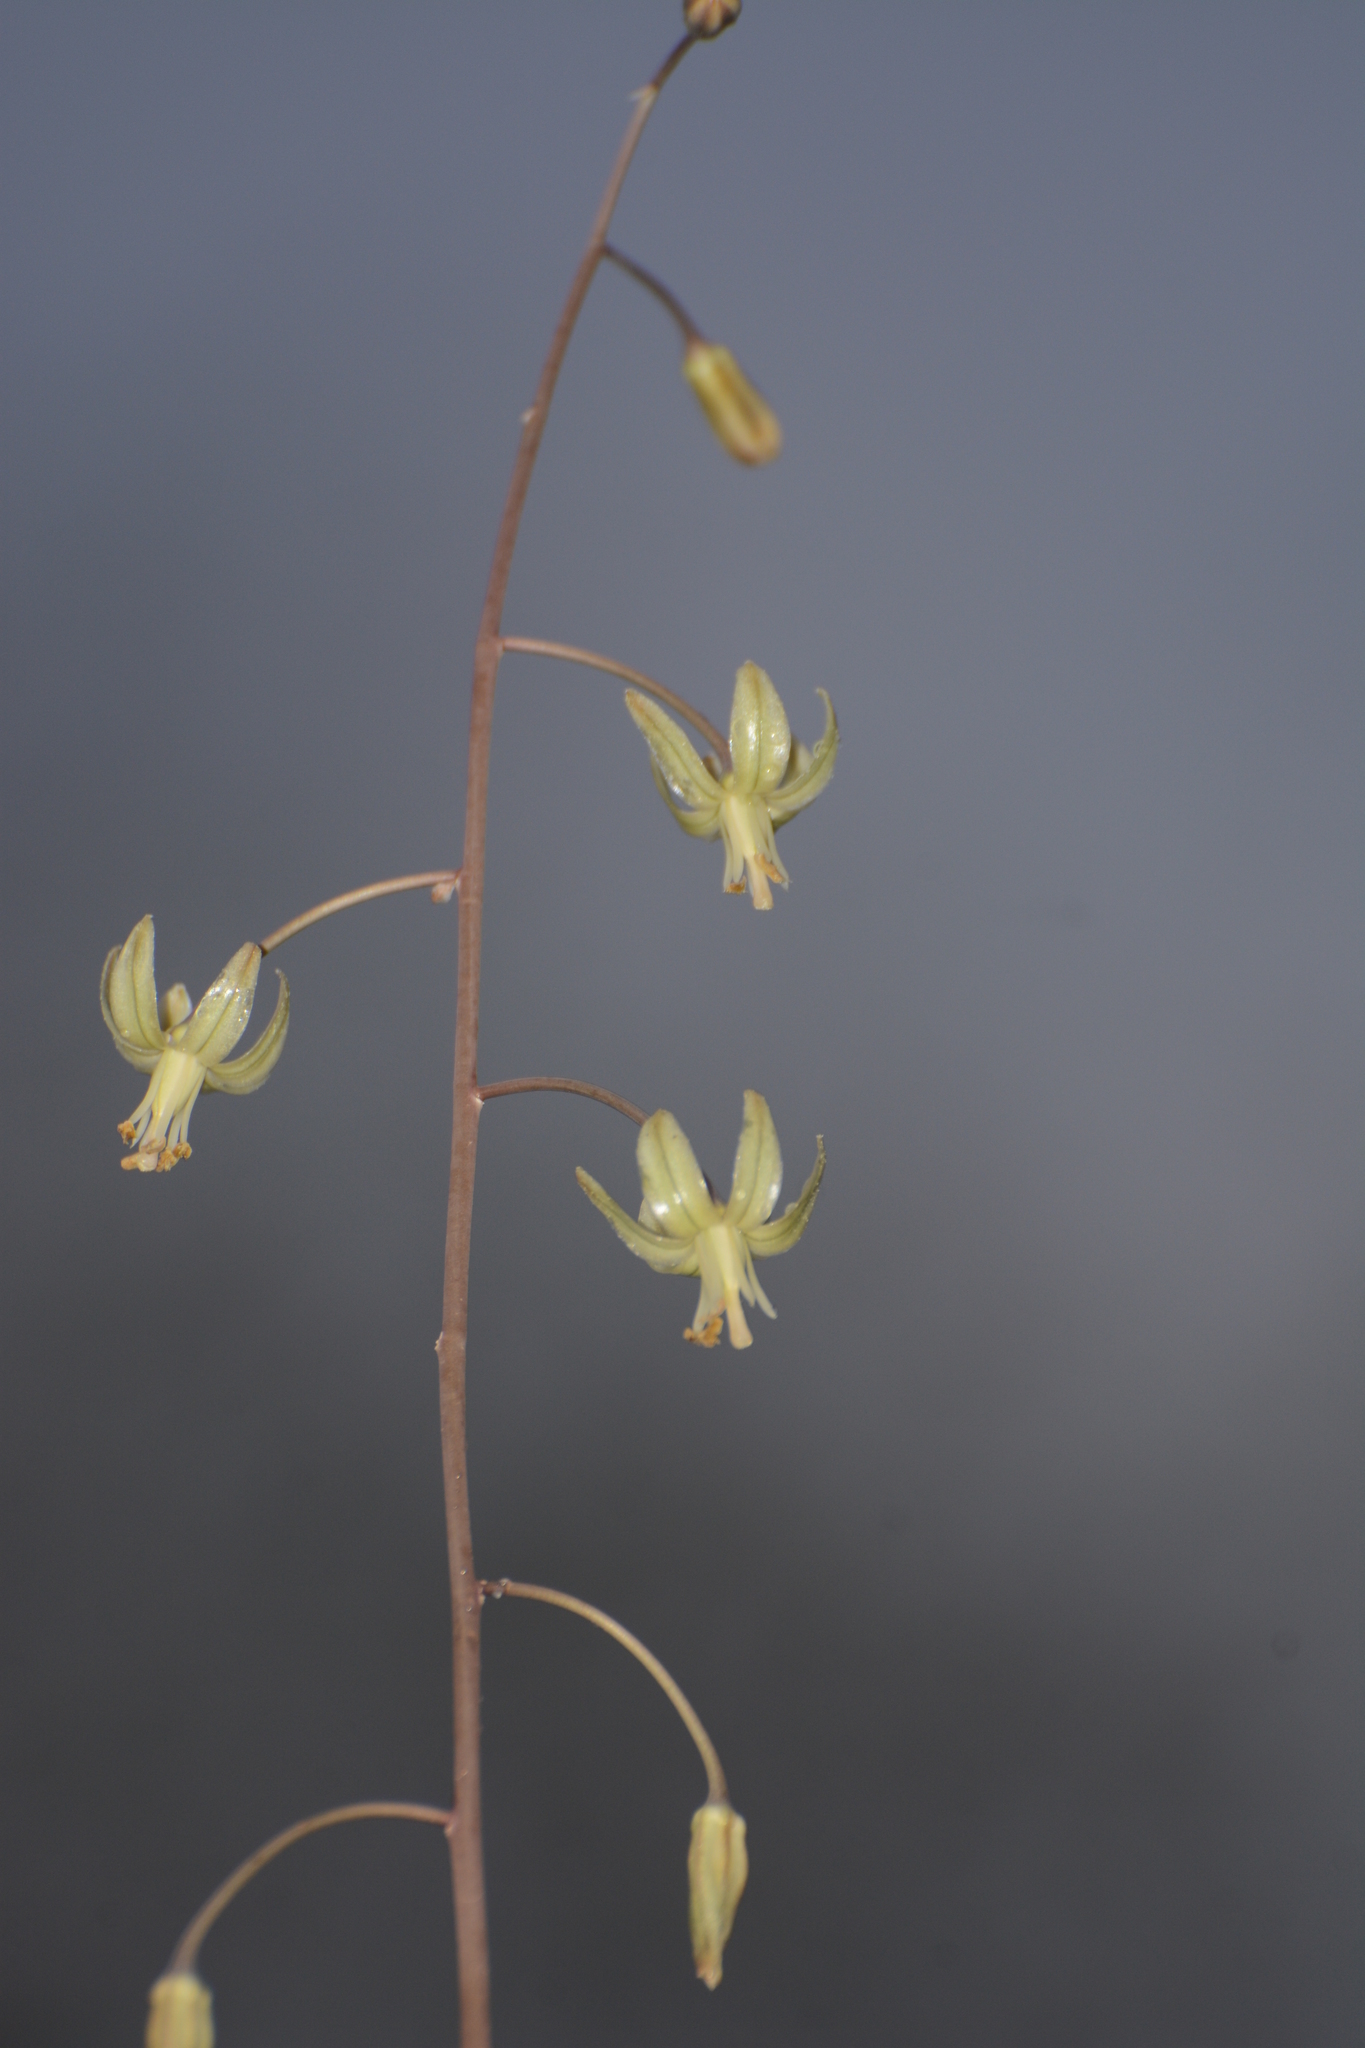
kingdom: Plantae
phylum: Tracheophyta
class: Liliopsida
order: Asparagales
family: Asparagaceae
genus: Drimia
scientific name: Drimia indica
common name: Indian-squill
